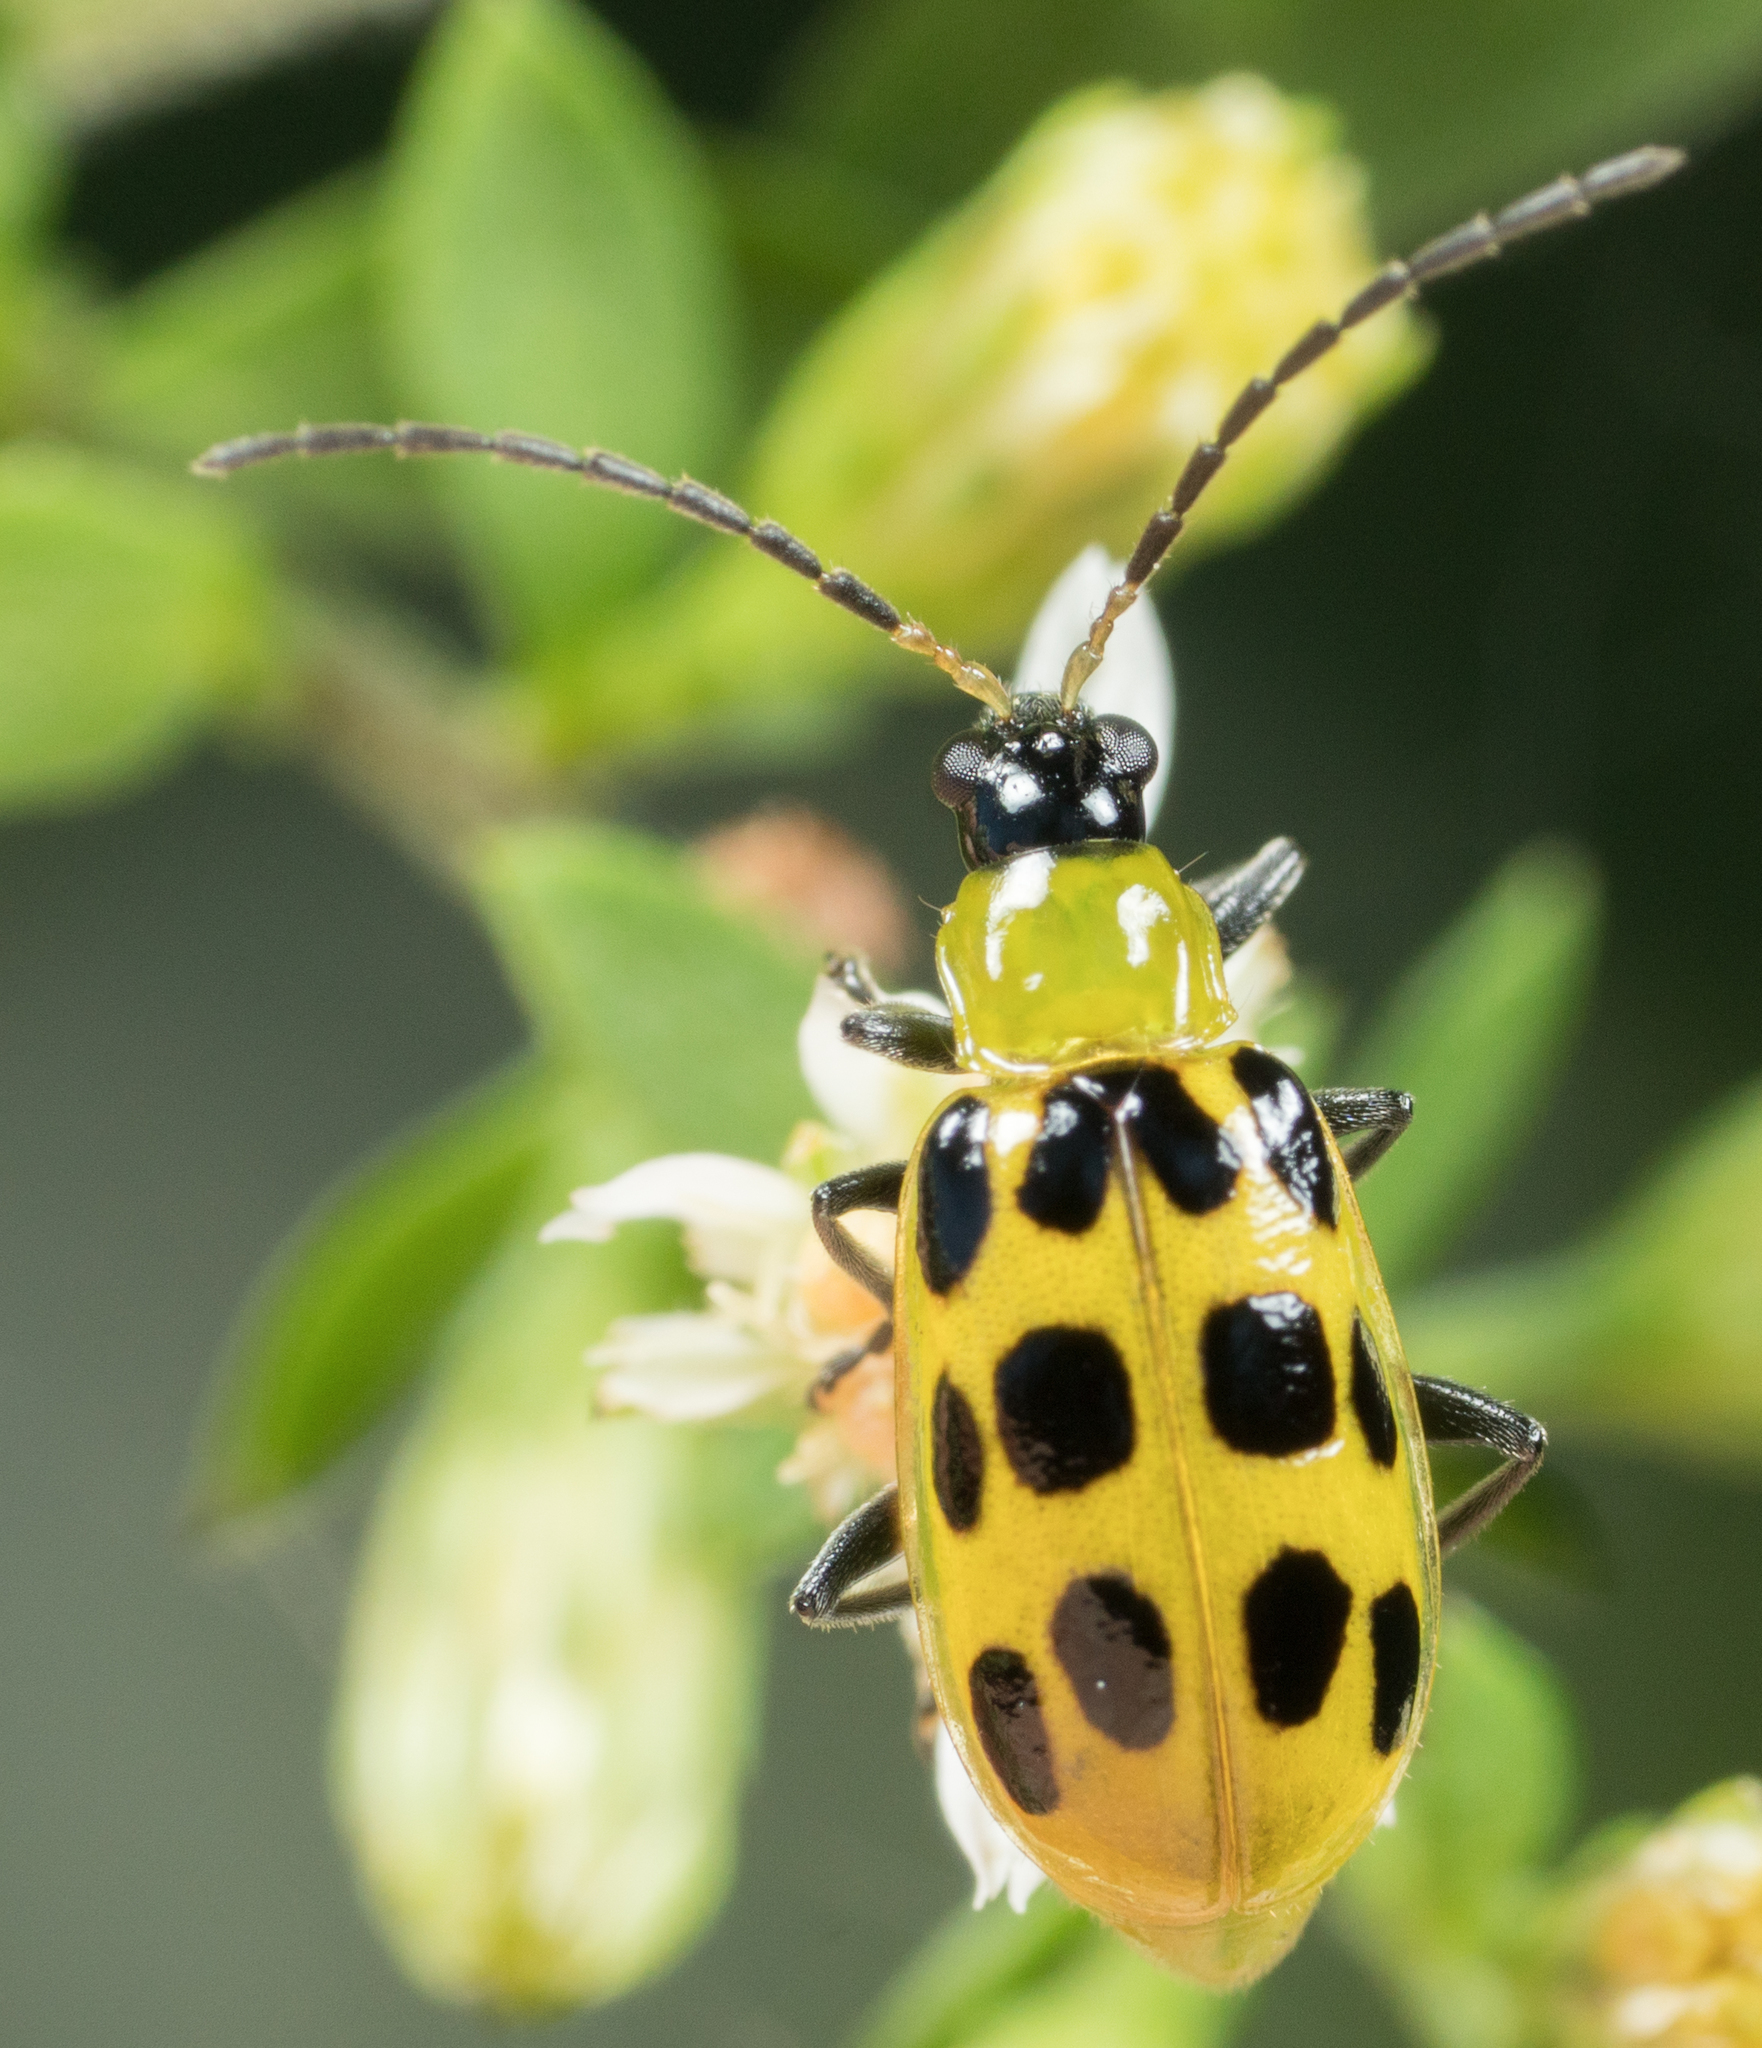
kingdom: Animalia
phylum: Arthropoda
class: Insecta
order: Coleoptera
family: Chrysomelidae
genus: Diabrotica
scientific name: Diabrotica undecimpunctata
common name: Spotted cucumber beetle
